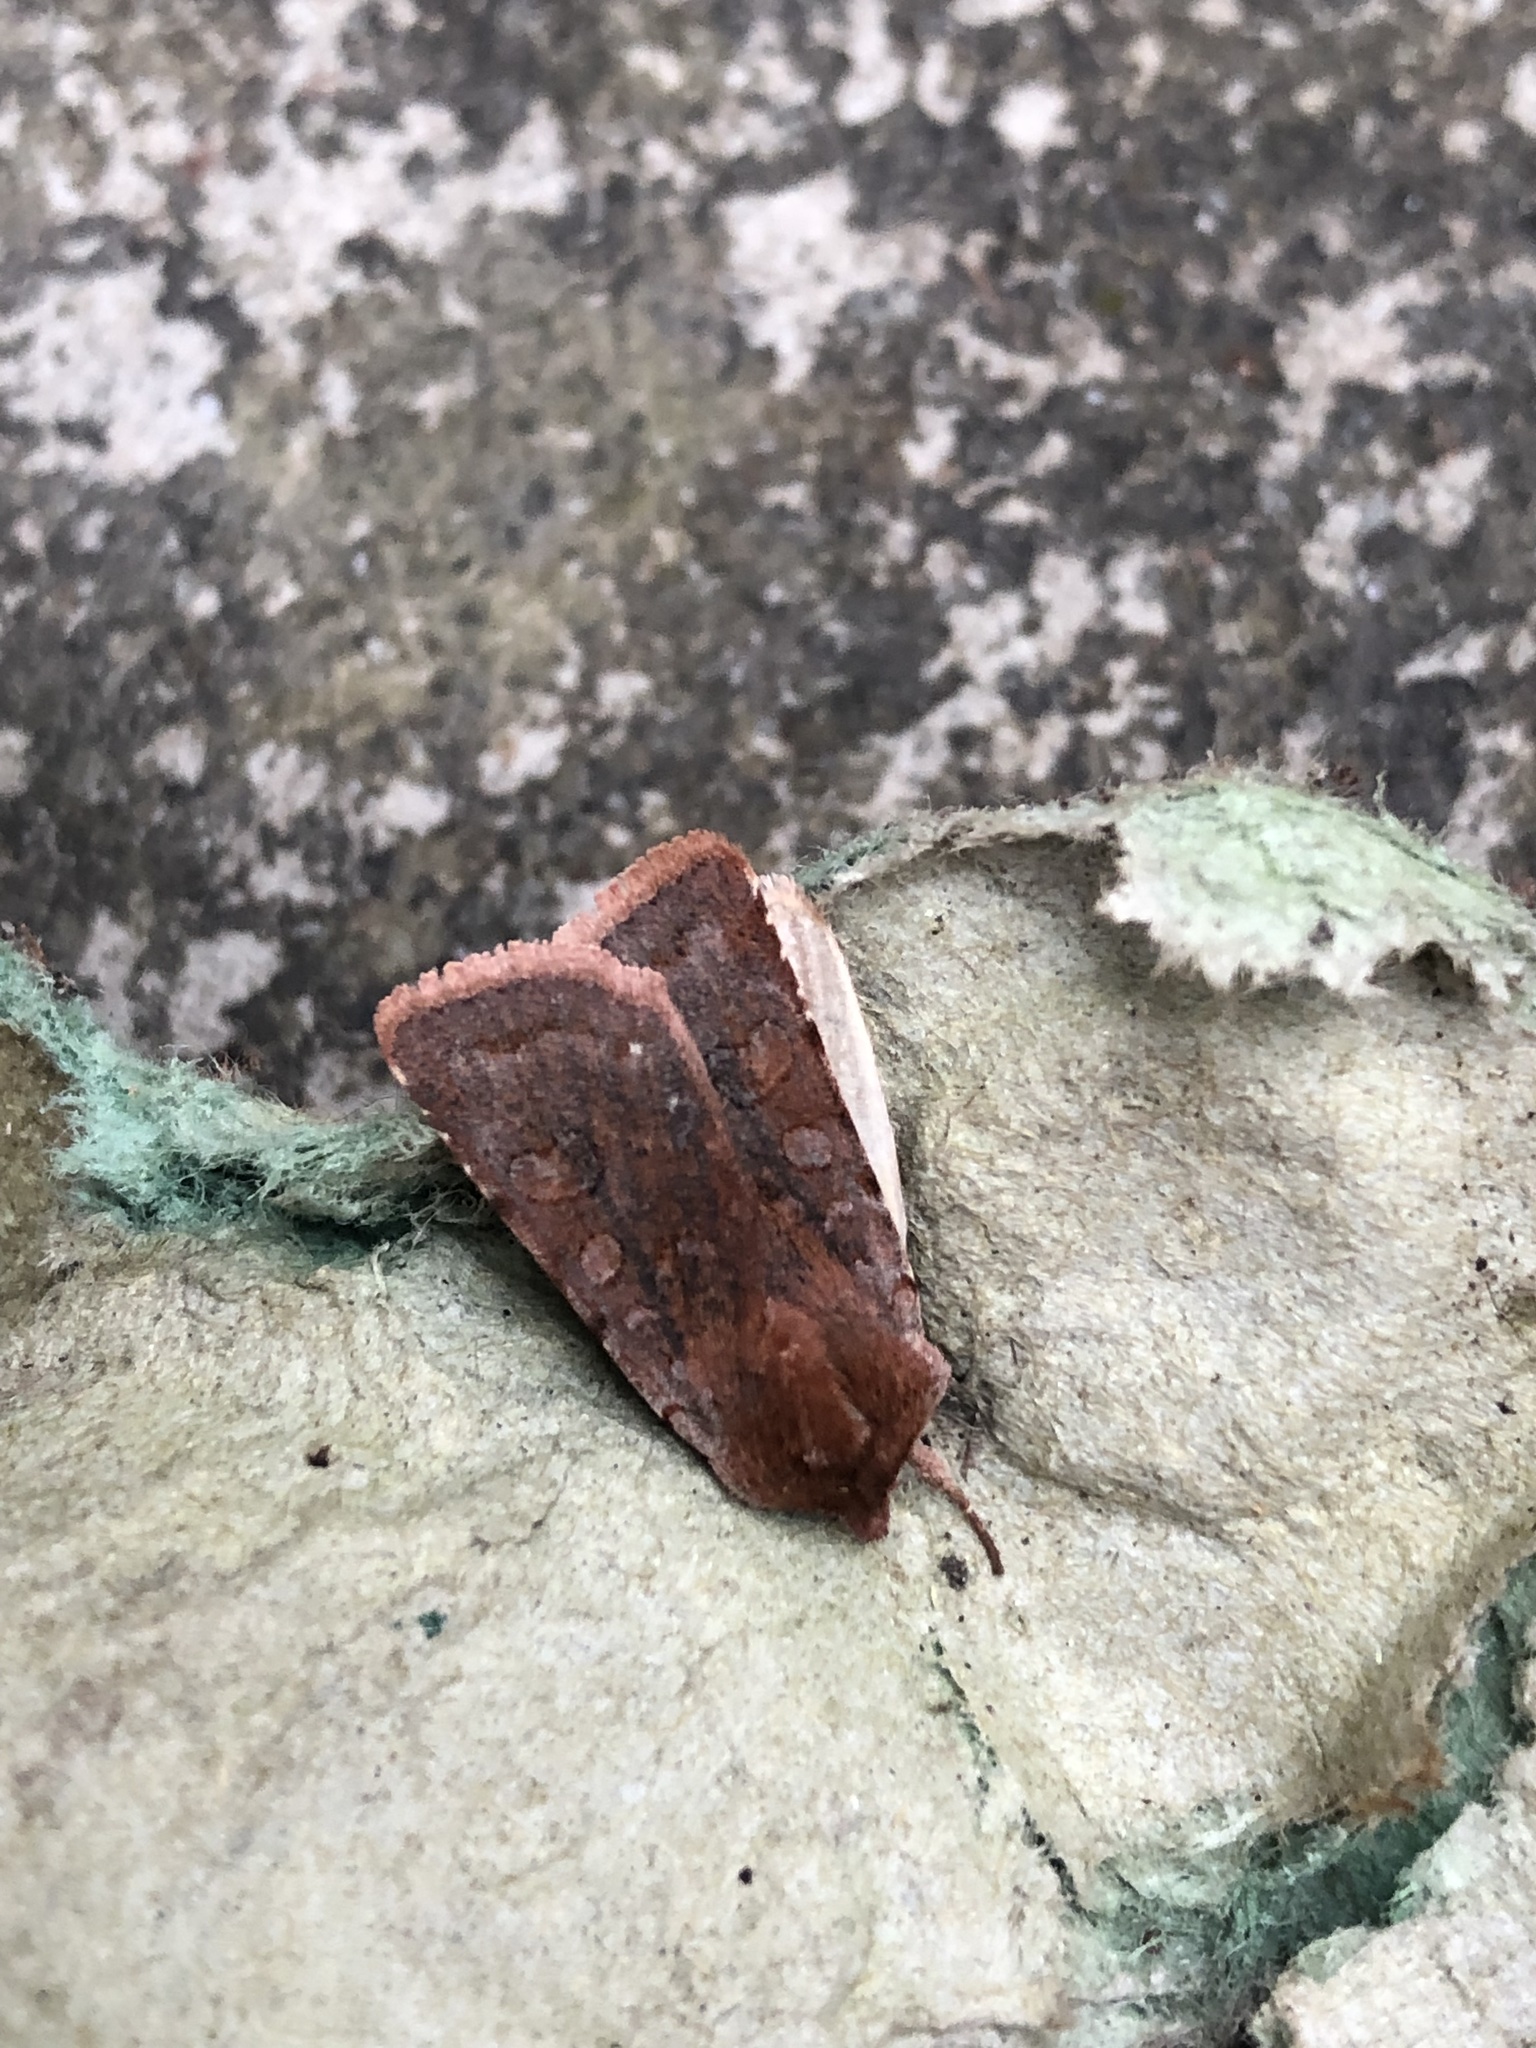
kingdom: Animalia
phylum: Arthropoda
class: Insecta
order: Lepidoptera
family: Noctuidae
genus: Cerastis
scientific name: Cerastis rubricosa
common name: Red chestnut
